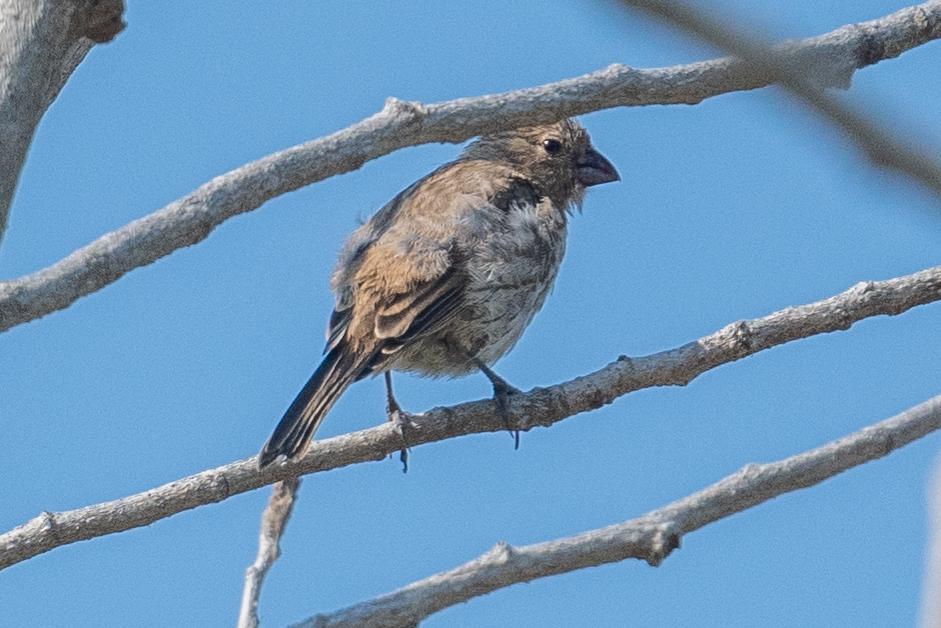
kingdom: Animalia
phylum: Chordata
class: Aves
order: Passeriformes
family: Fringillidae
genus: Haemorhous
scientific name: Haemorhous mexicanus
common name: House finch
